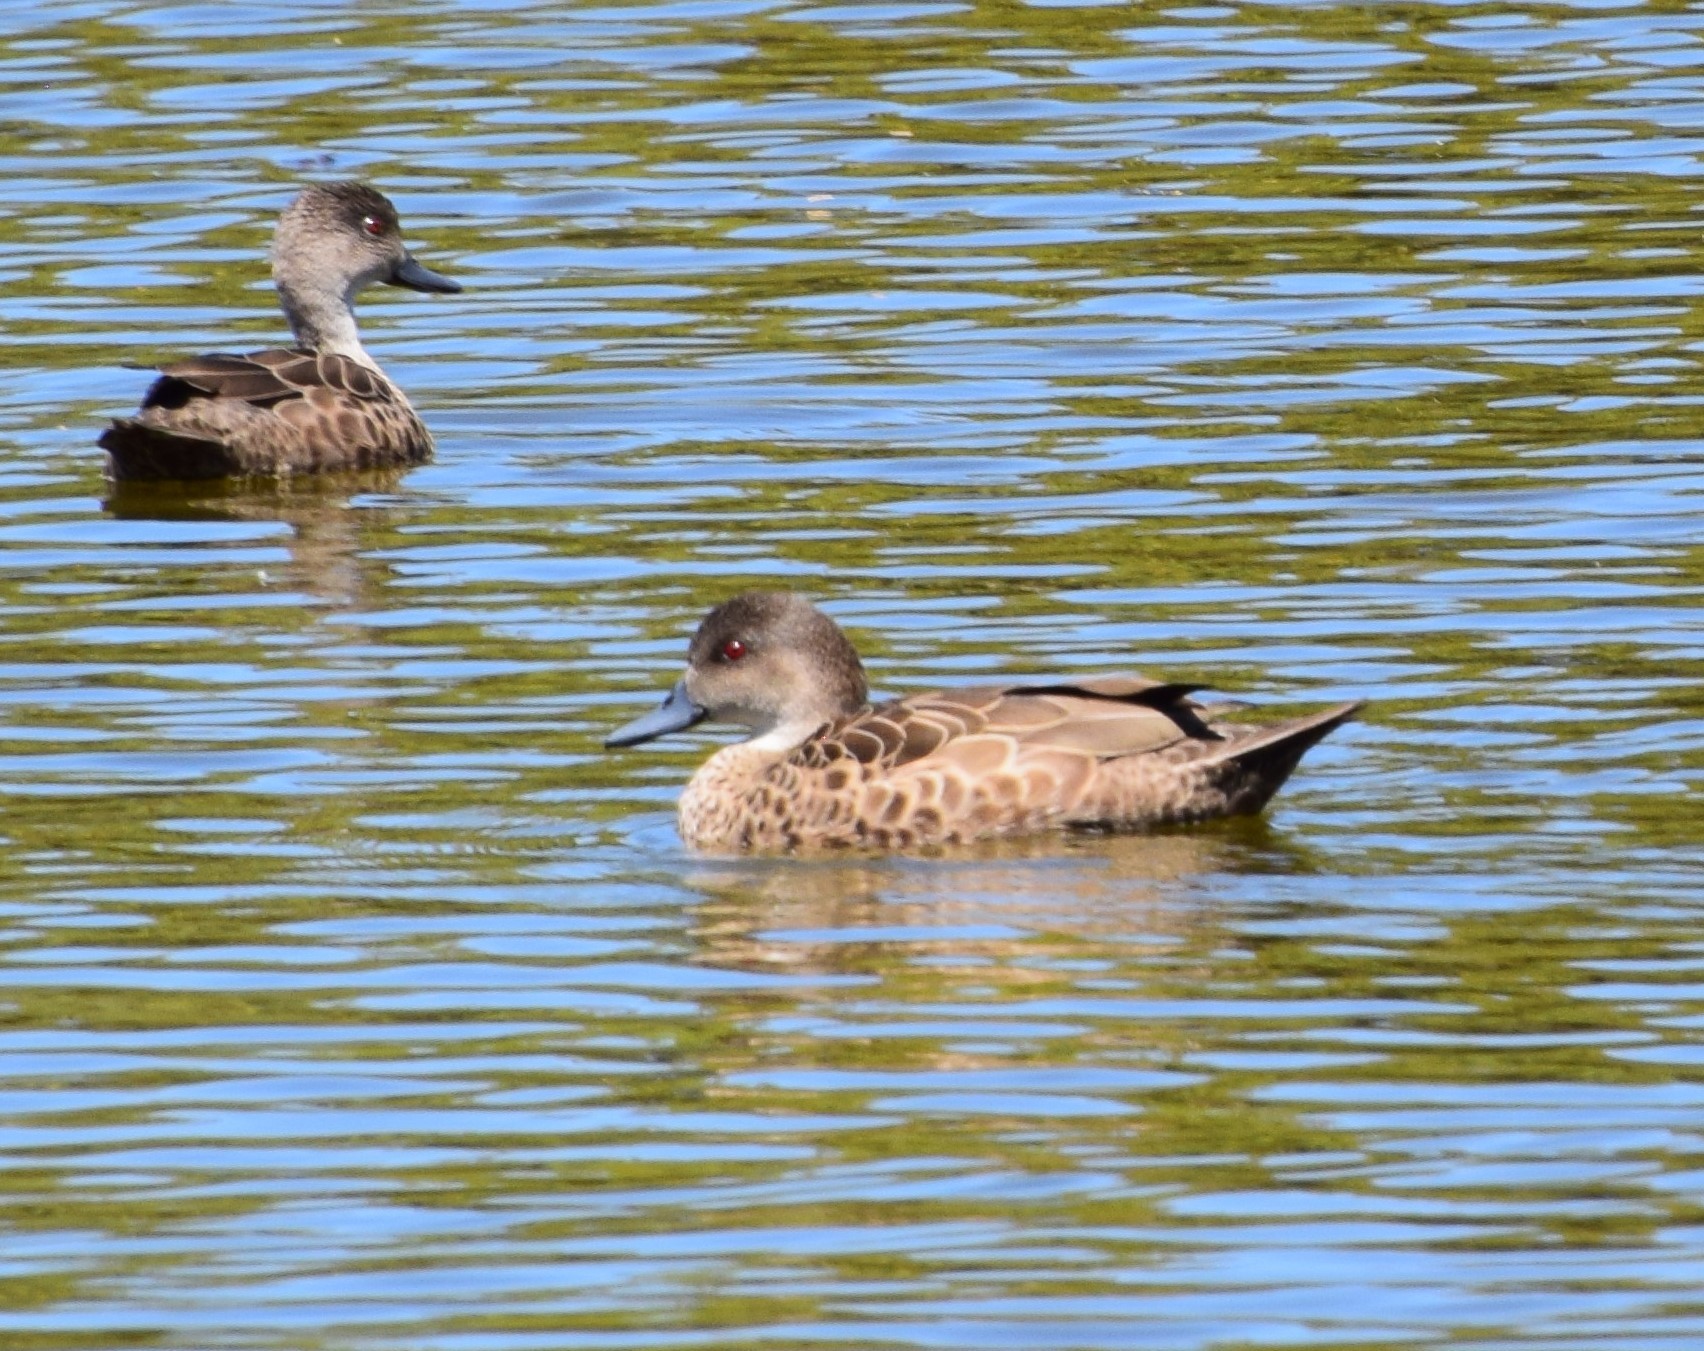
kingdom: Animalia
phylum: Chordata
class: Aves
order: Anseriformes
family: Anatidae
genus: Anas
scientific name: Anas gracilis
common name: Grey teal
